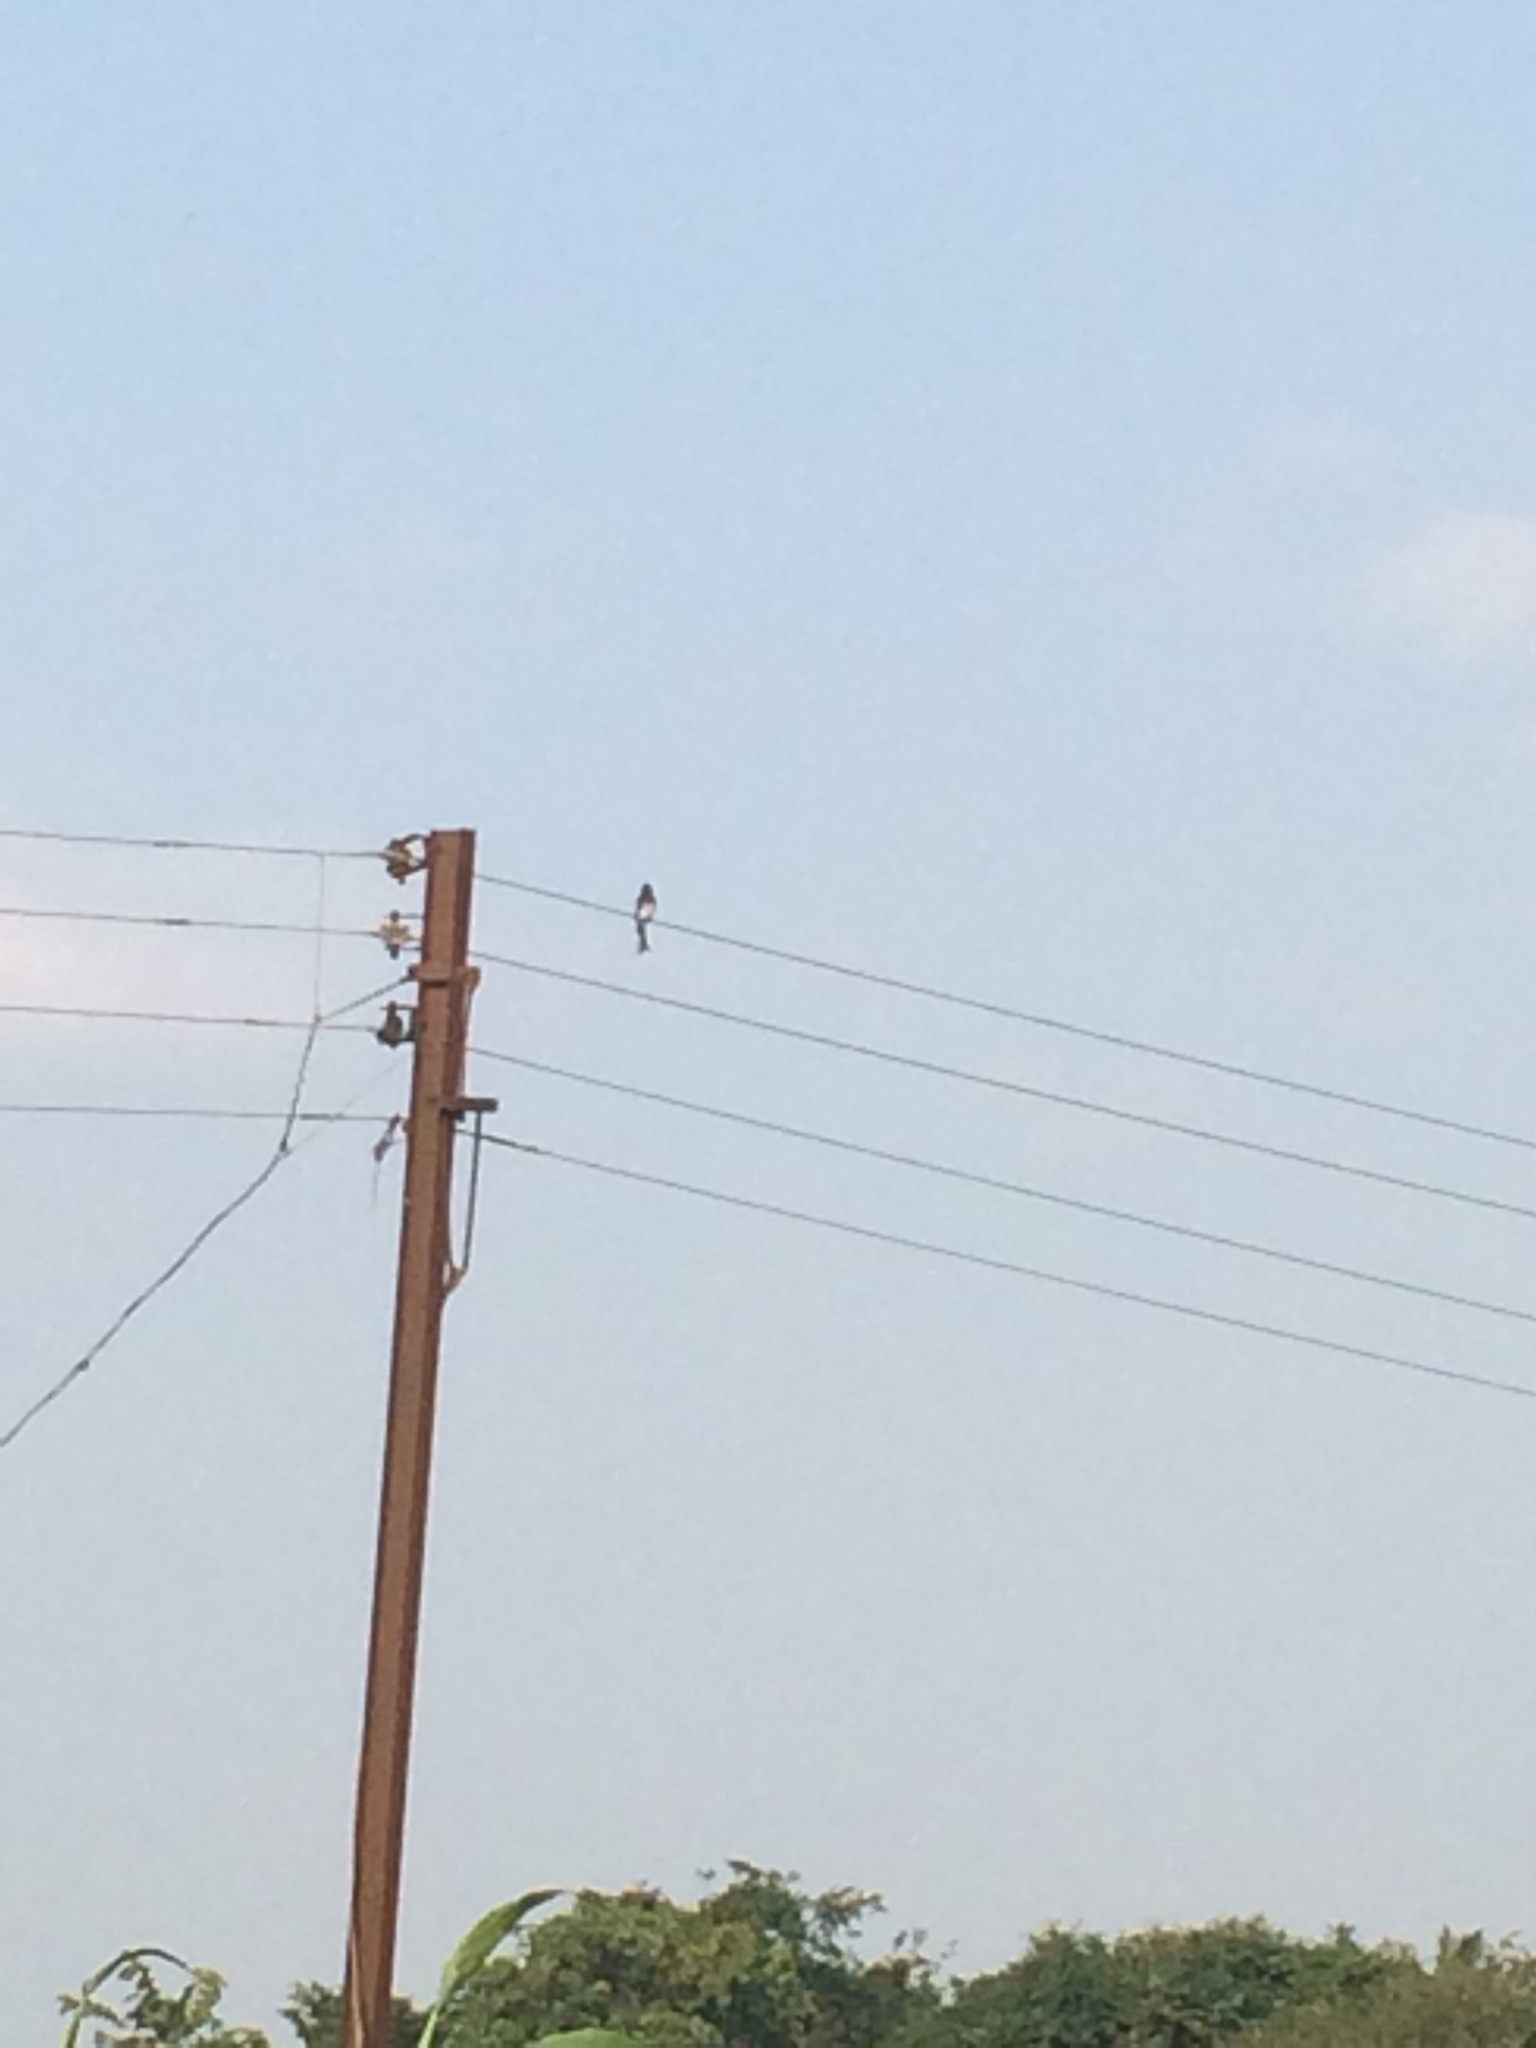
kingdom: Animalia
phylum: Chordata
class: Aves
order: Passeriformes
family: Dicruridae
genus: Dicrurus
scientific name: Dicrurus caerulescens
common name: White-bellied drongo
